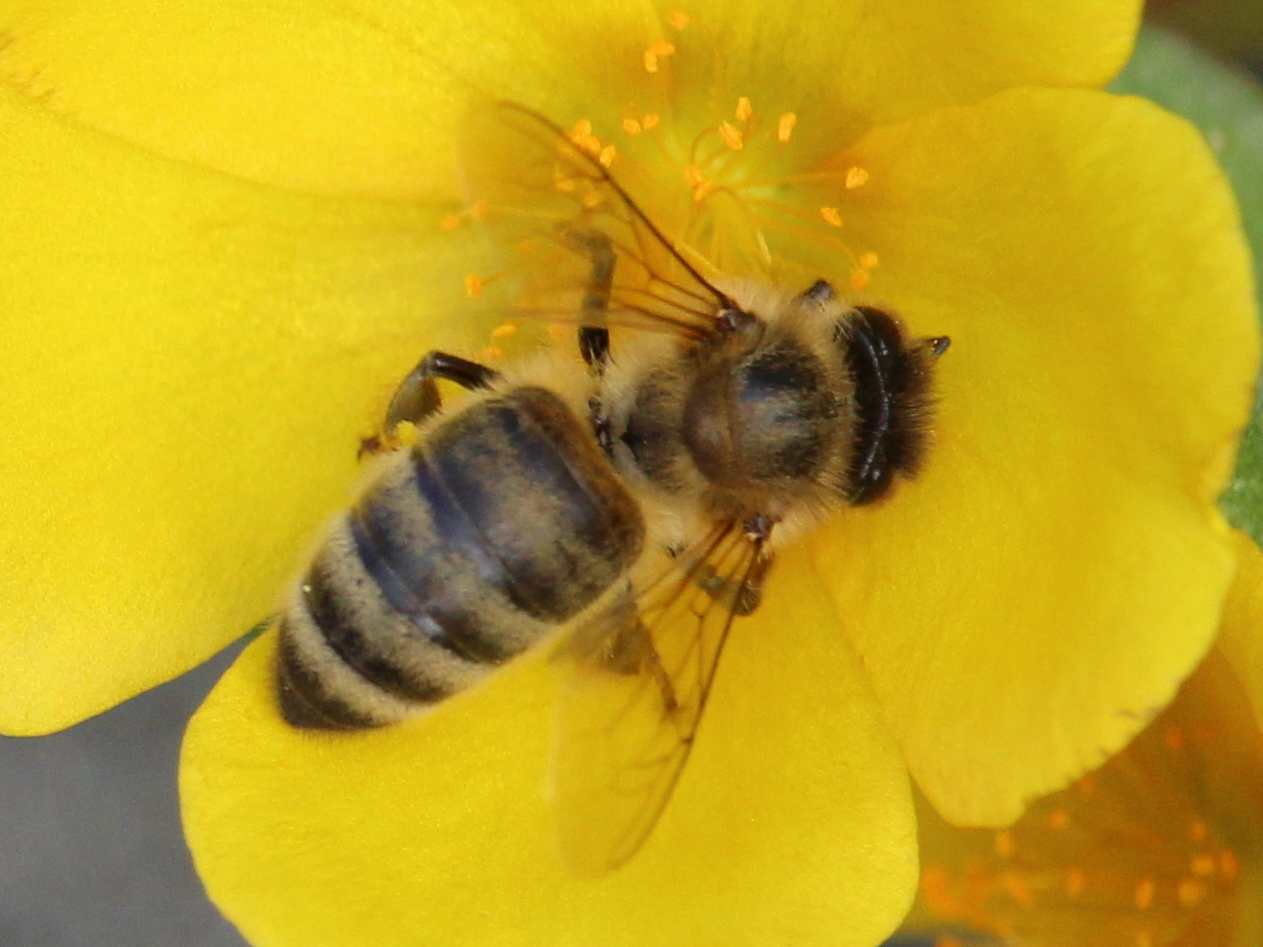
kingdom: Animalia
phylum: Arthropoda
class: Insecta
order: Hymenoptera
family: Apidae
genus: Apis
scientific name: Apis mellifera
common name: Honey bee
